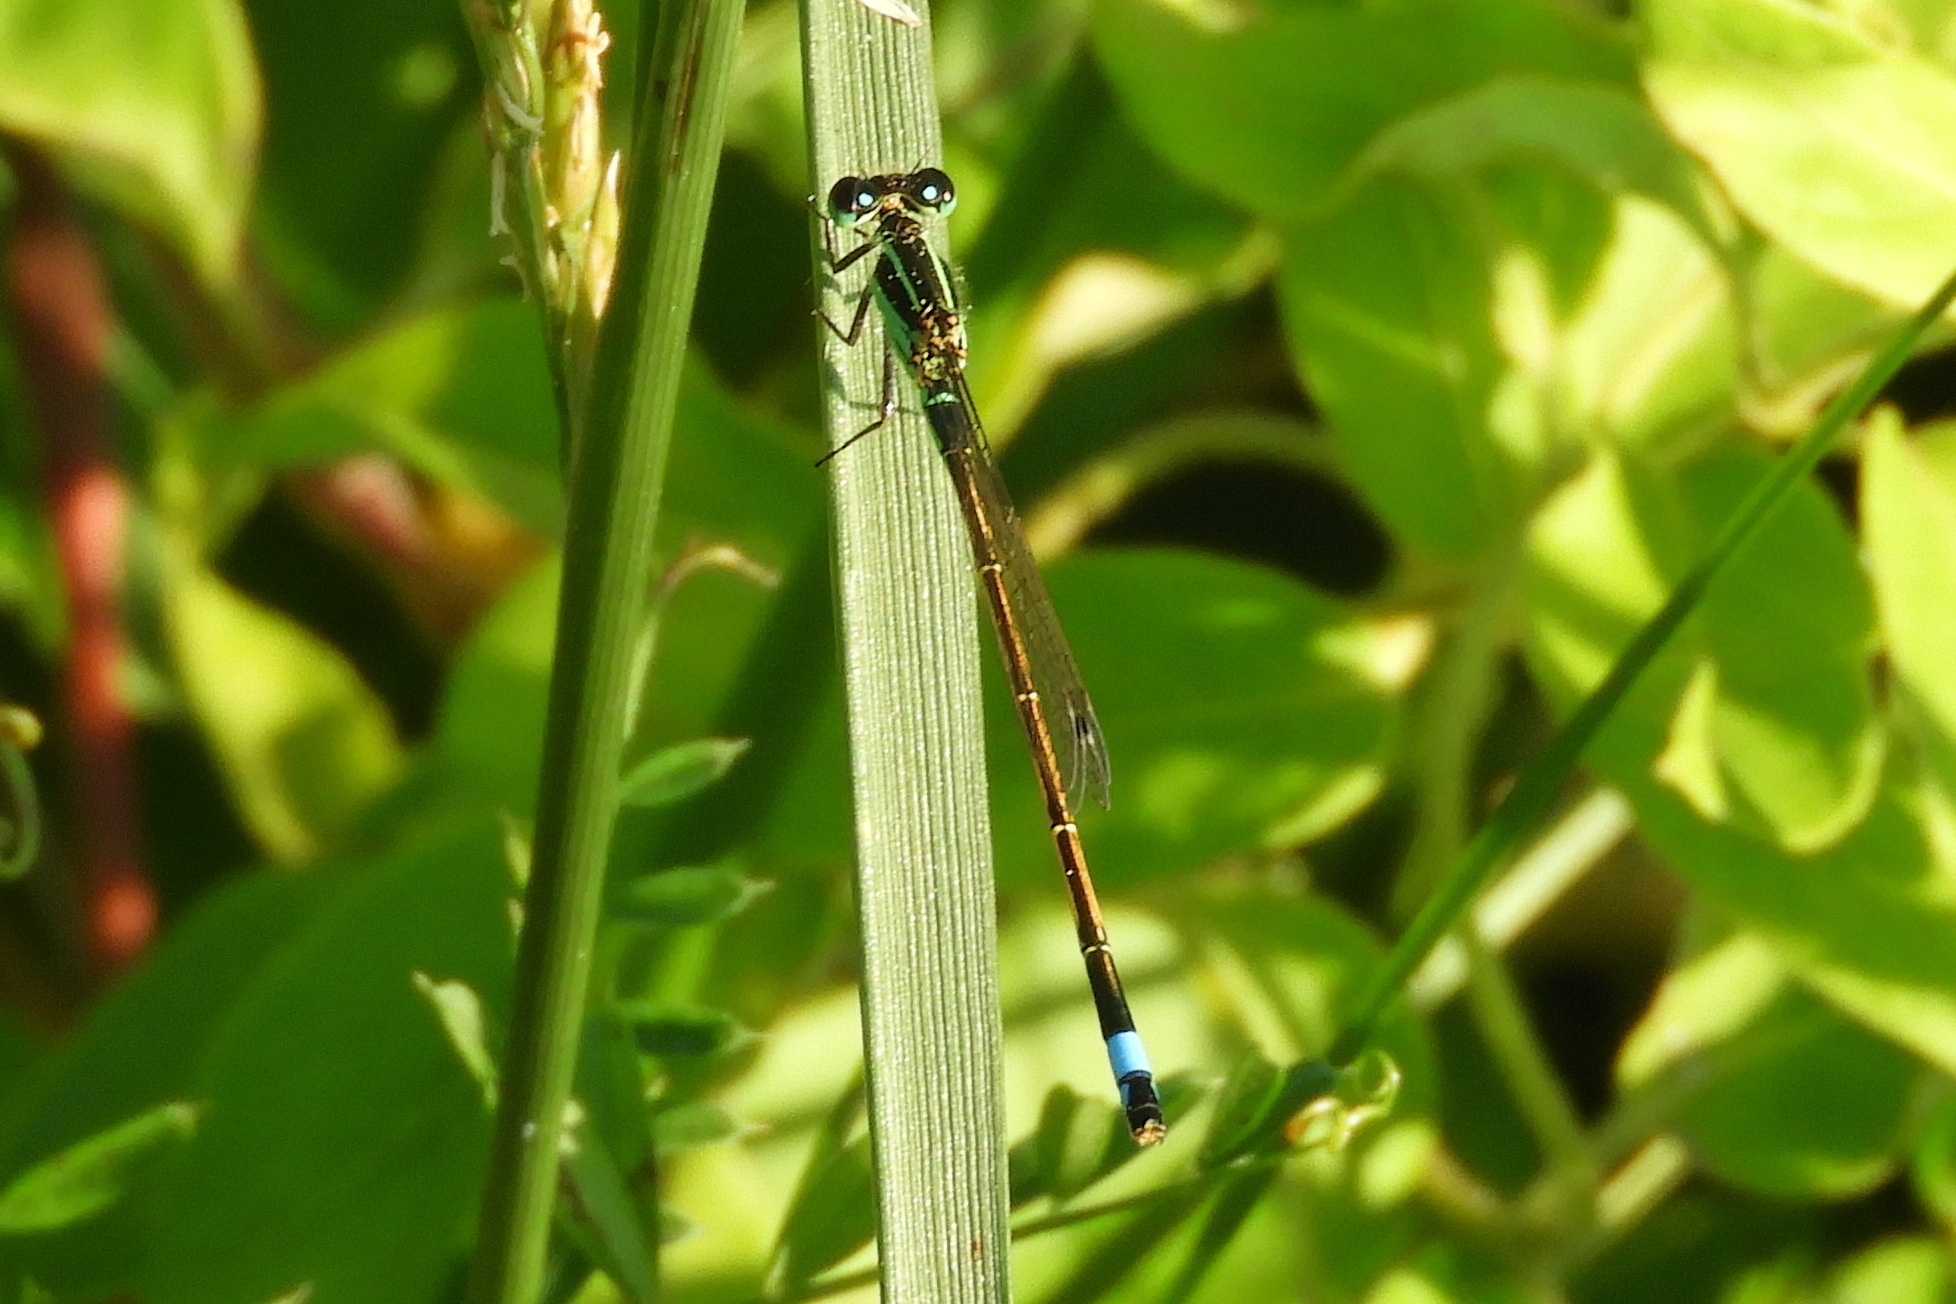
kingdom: Animalia
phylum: Arthropoda
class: Insecta
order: Odonata
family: Coenagrionidae
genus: Ischnura
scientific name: Ischnura ramburii
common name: Rambur's forktail
